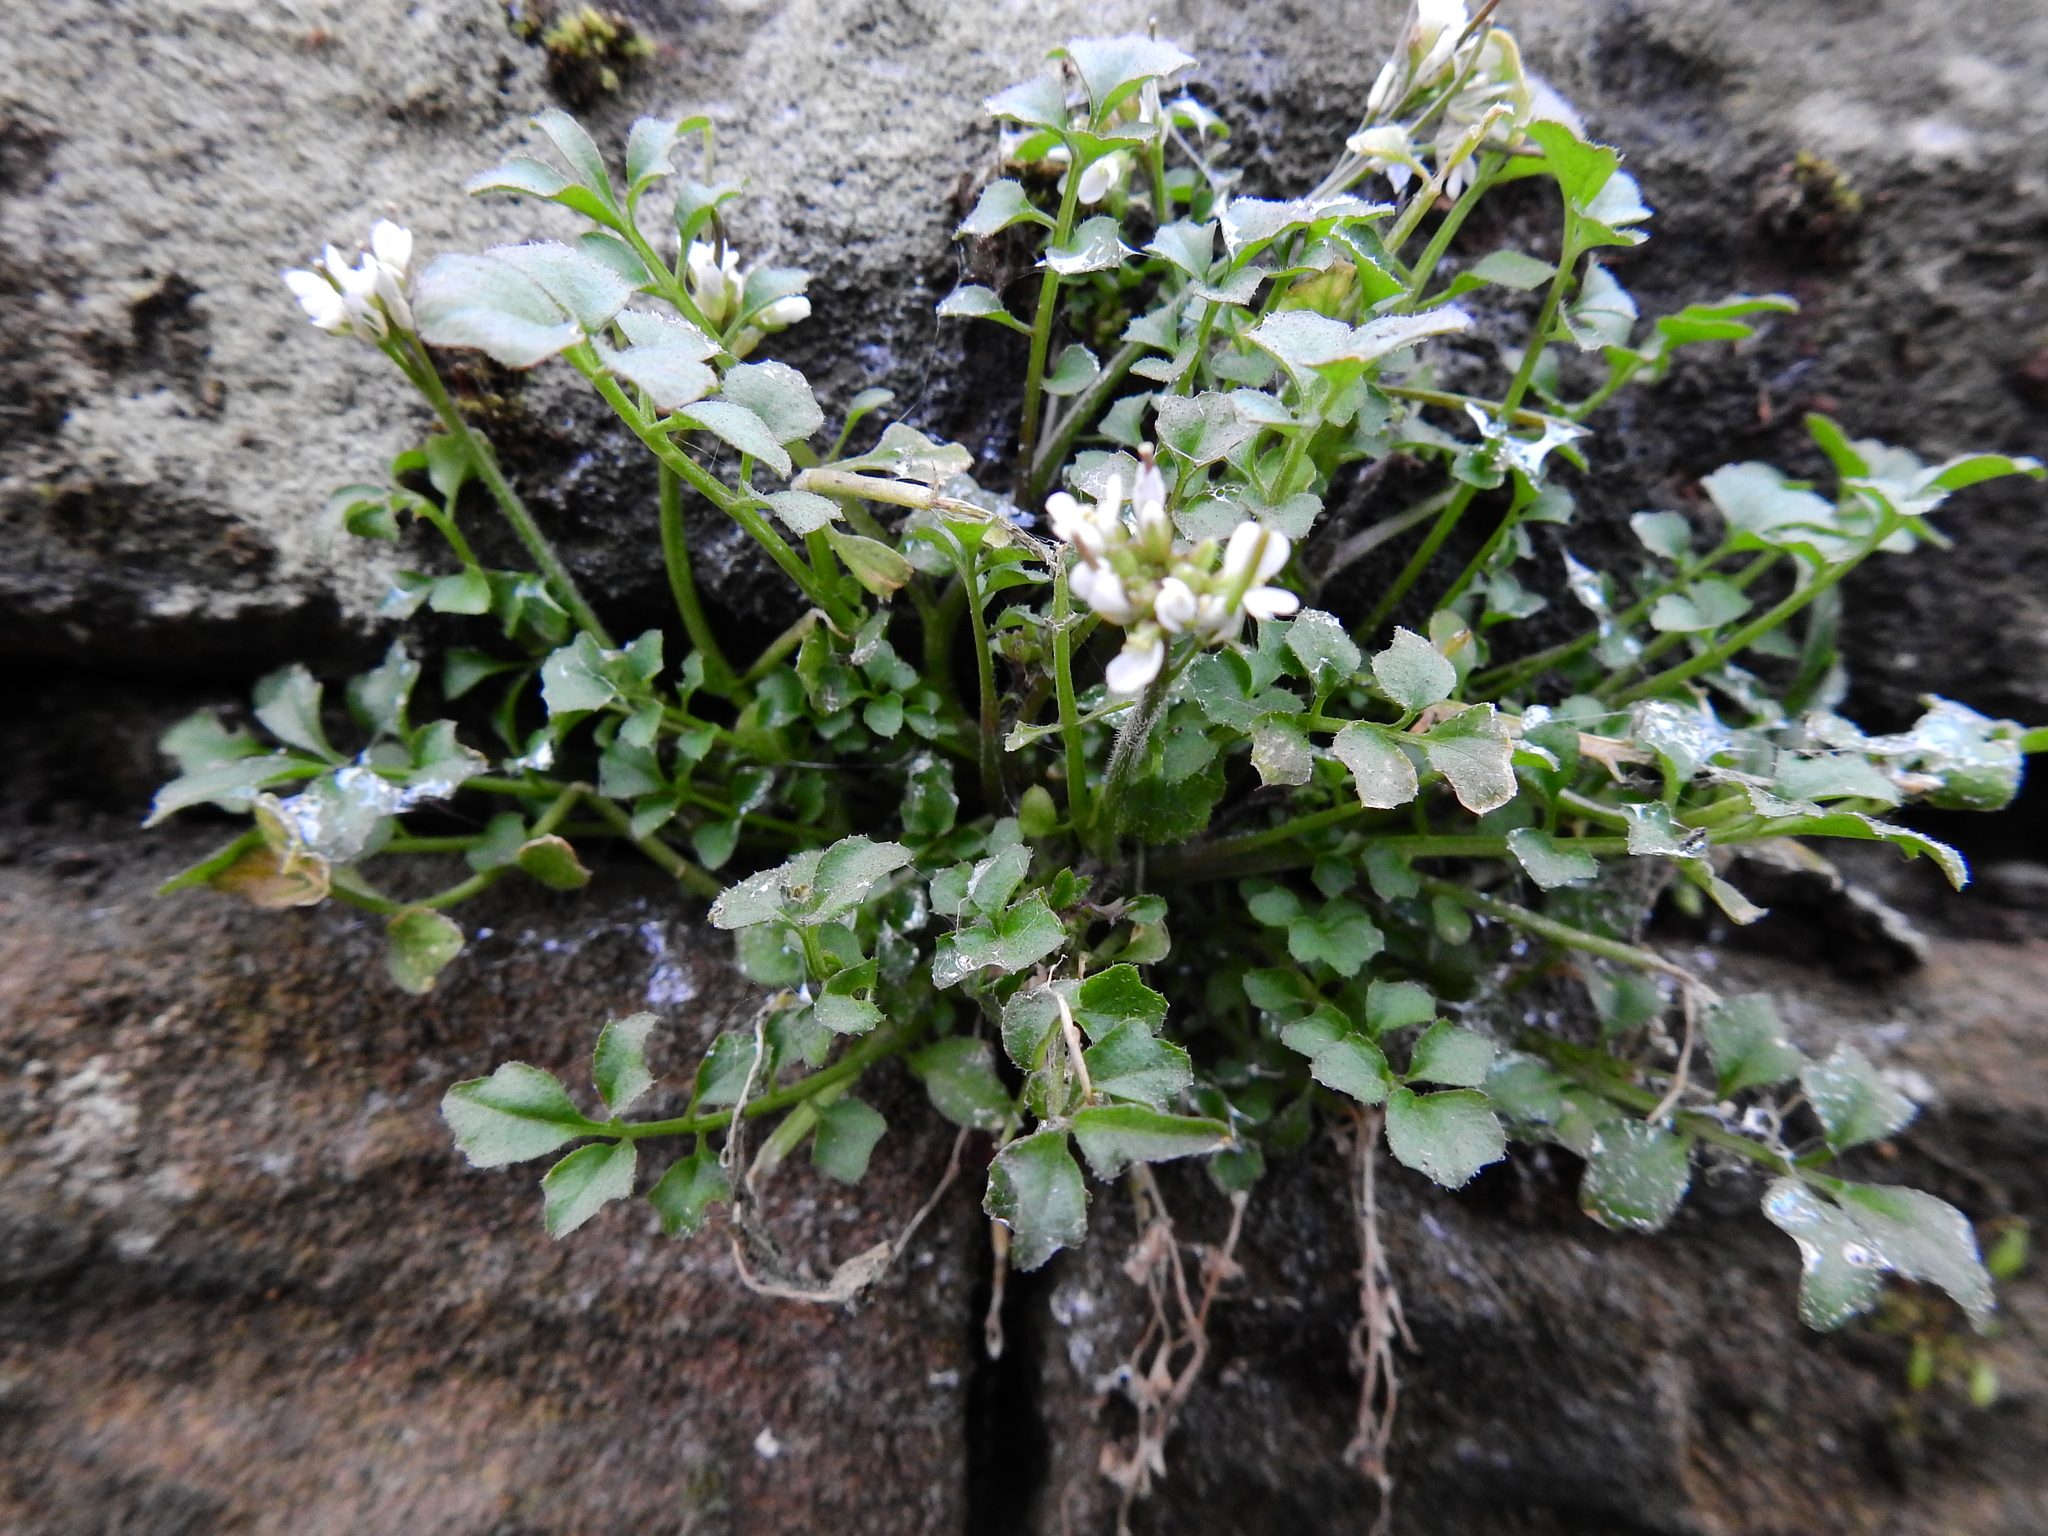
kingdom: Plantae
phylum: Tracheophyta
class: Magnoliopsida
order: Brassicales
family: Brassicaceae
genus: Cardamine
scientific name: Cardamine flexuosa
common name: Woodland bittercress
